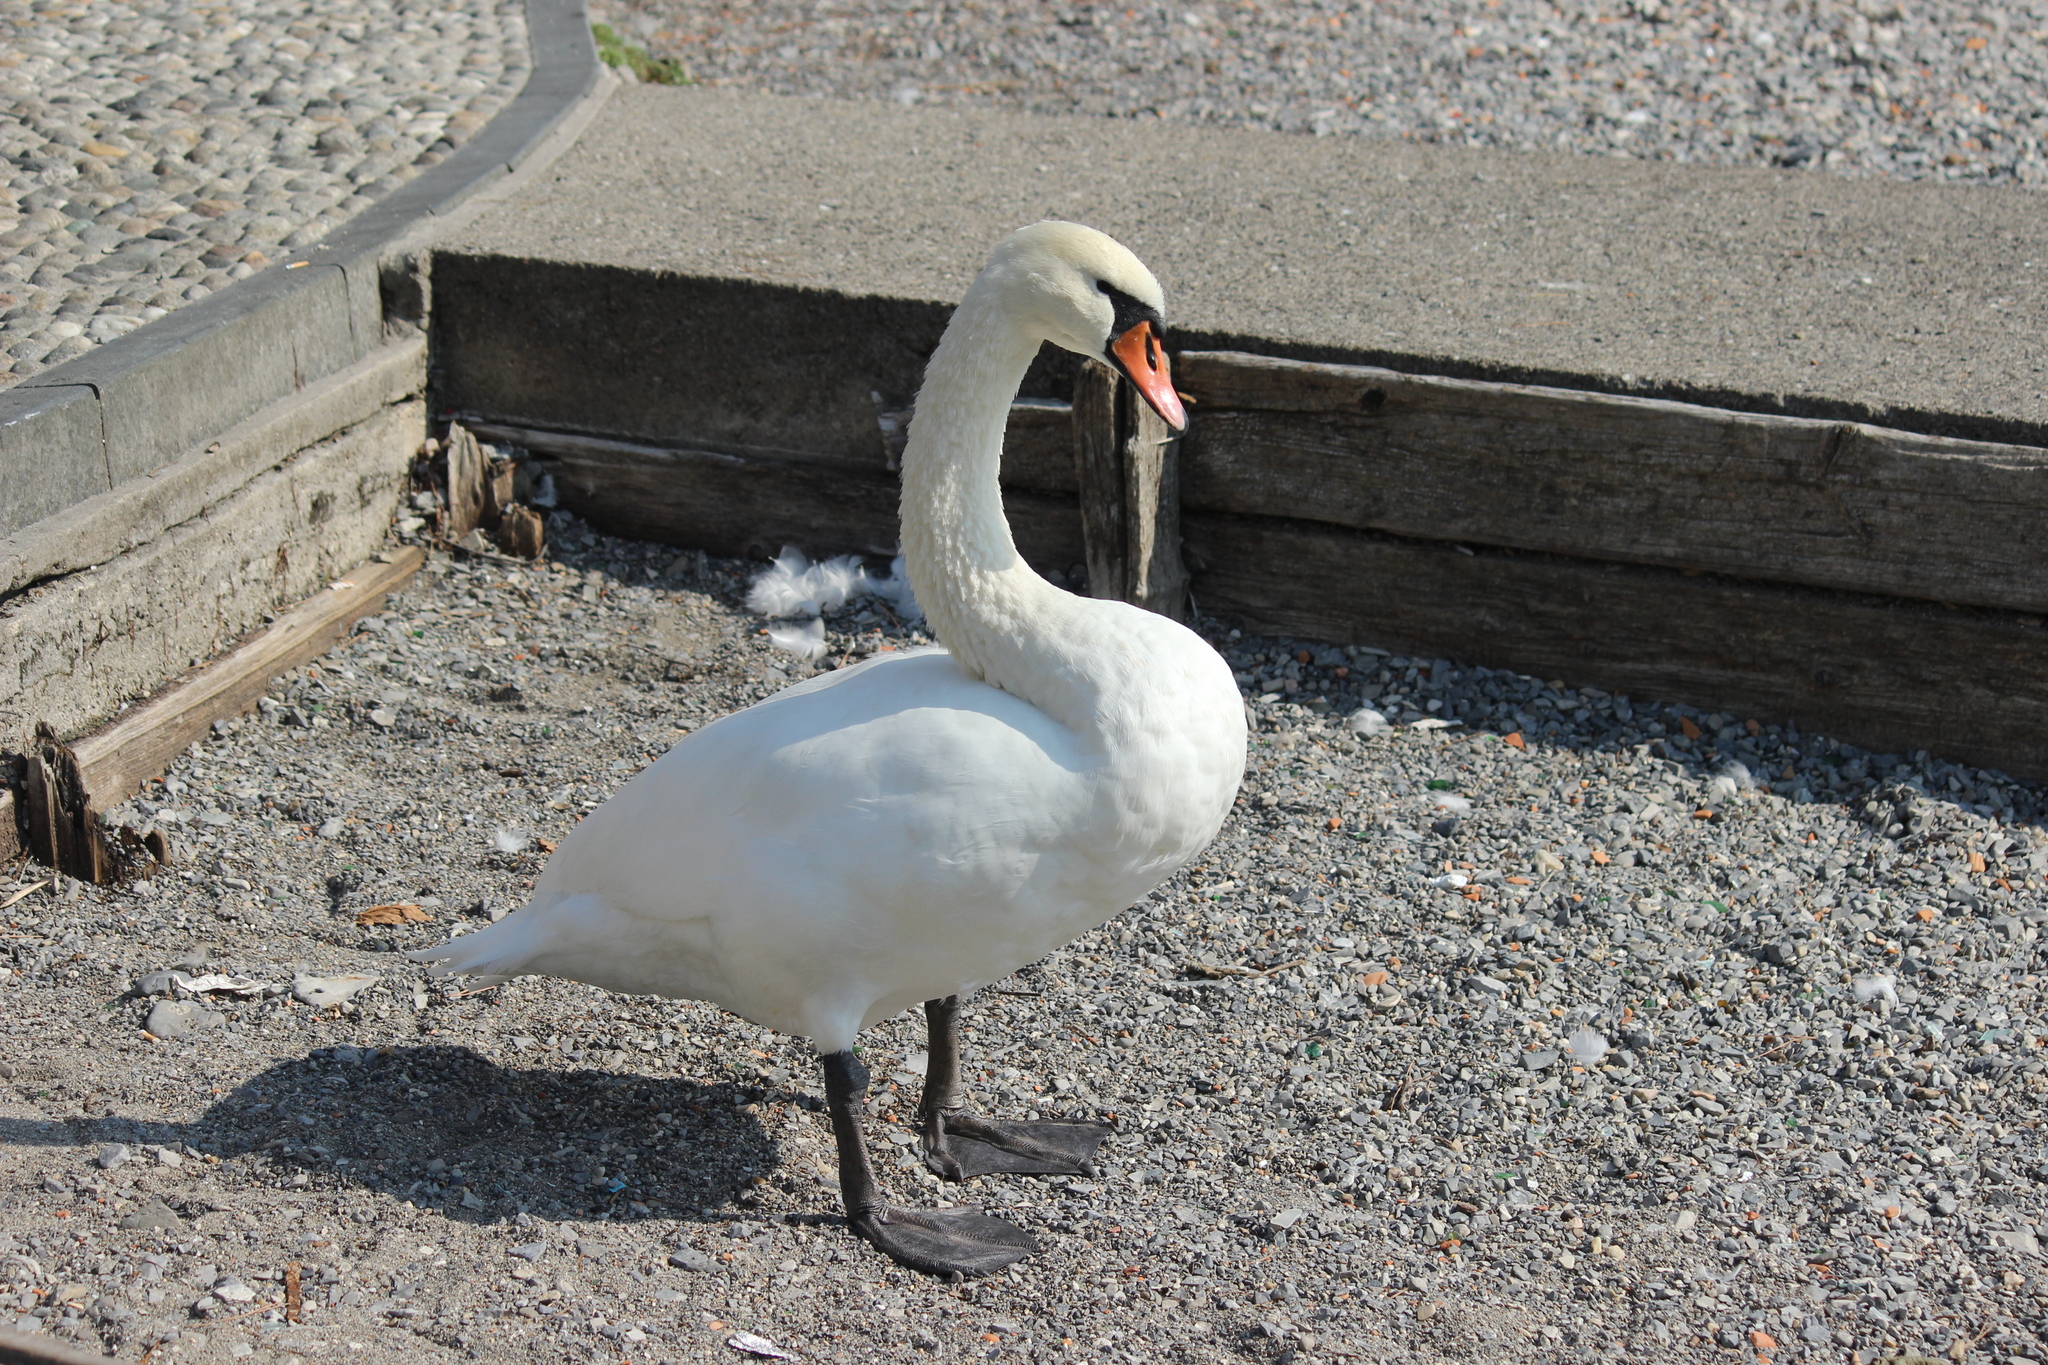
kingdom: Animalia
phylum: Chordata
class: Aves
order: Anseriformes
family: Anatidae
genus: Cygnus
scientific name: Cygnus olor
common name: Mute swan
